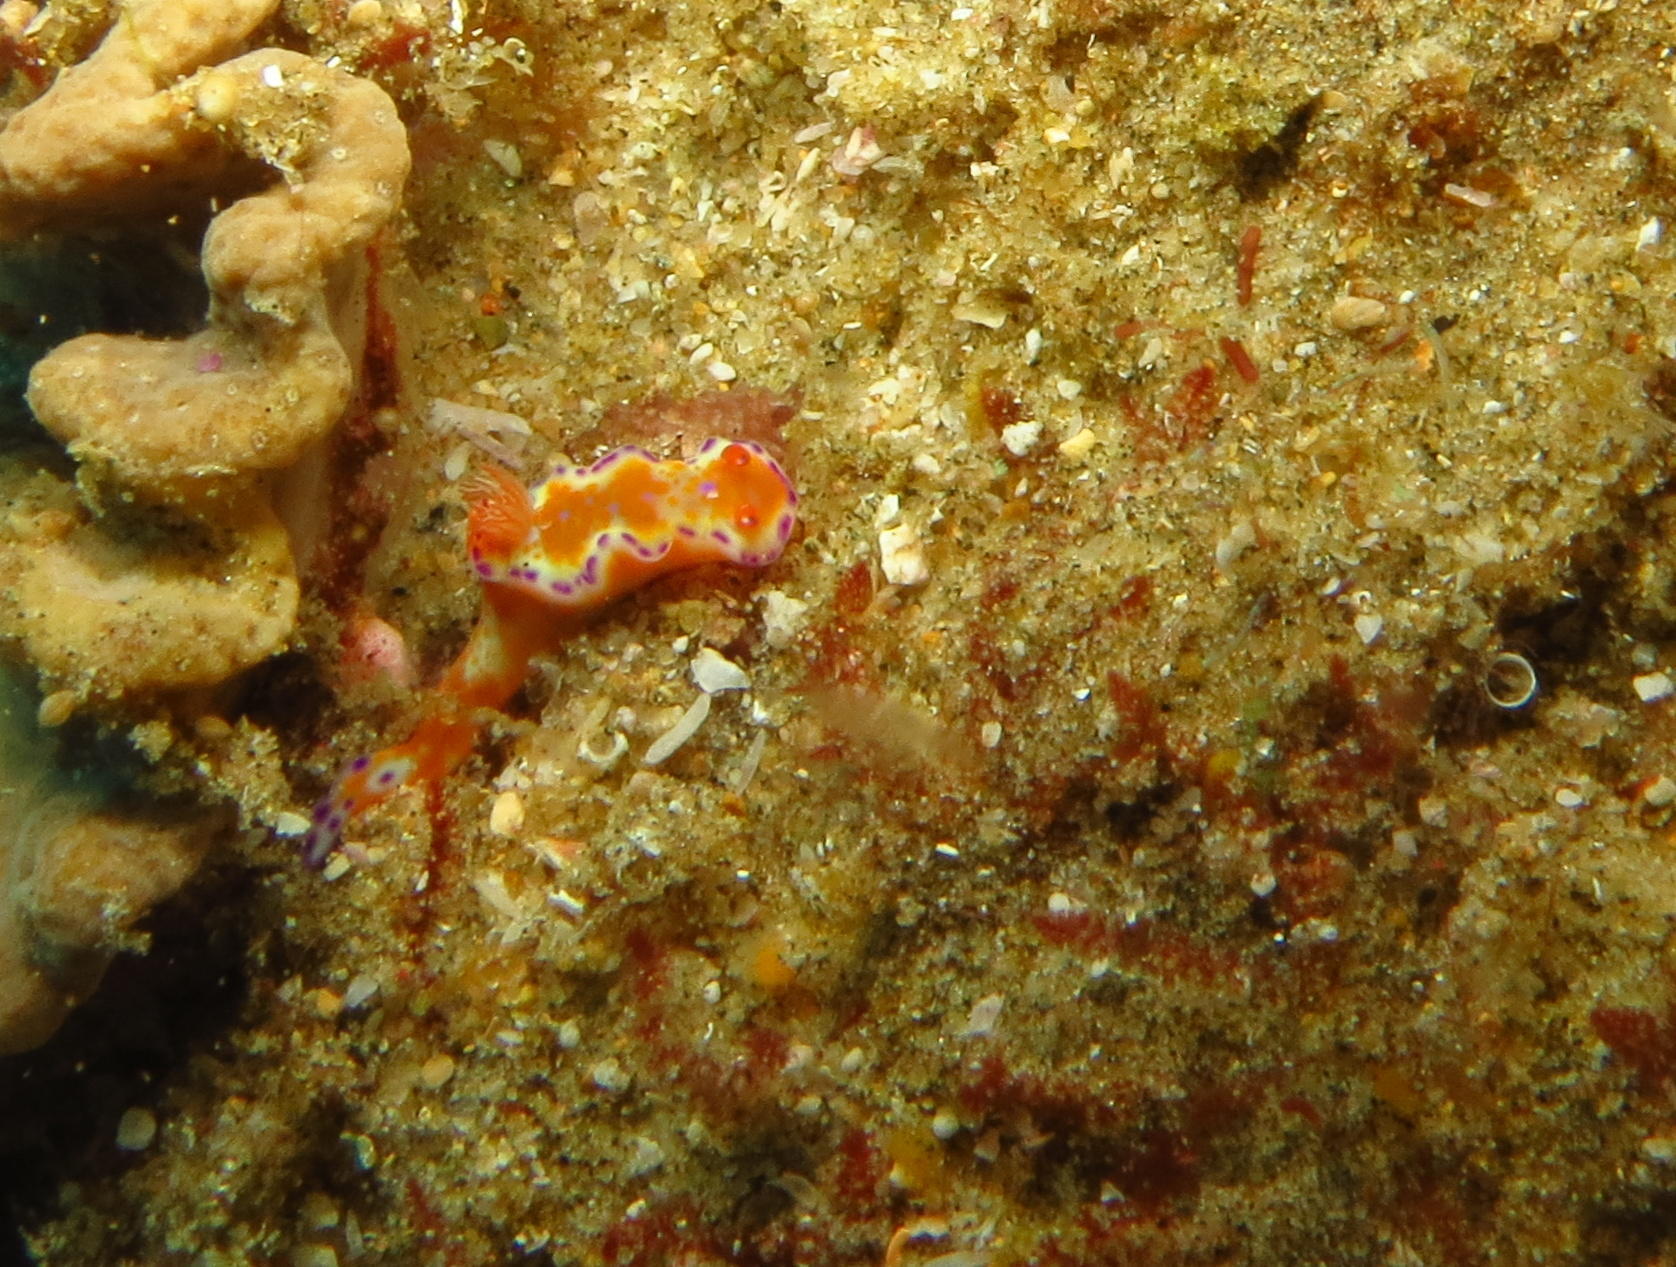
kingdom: Animalia
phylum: Mollusca
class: Gastropoda
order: Nudibranchia
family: Chromodorididae
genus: Ceratosoma
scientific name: Ceratosoma tenue
